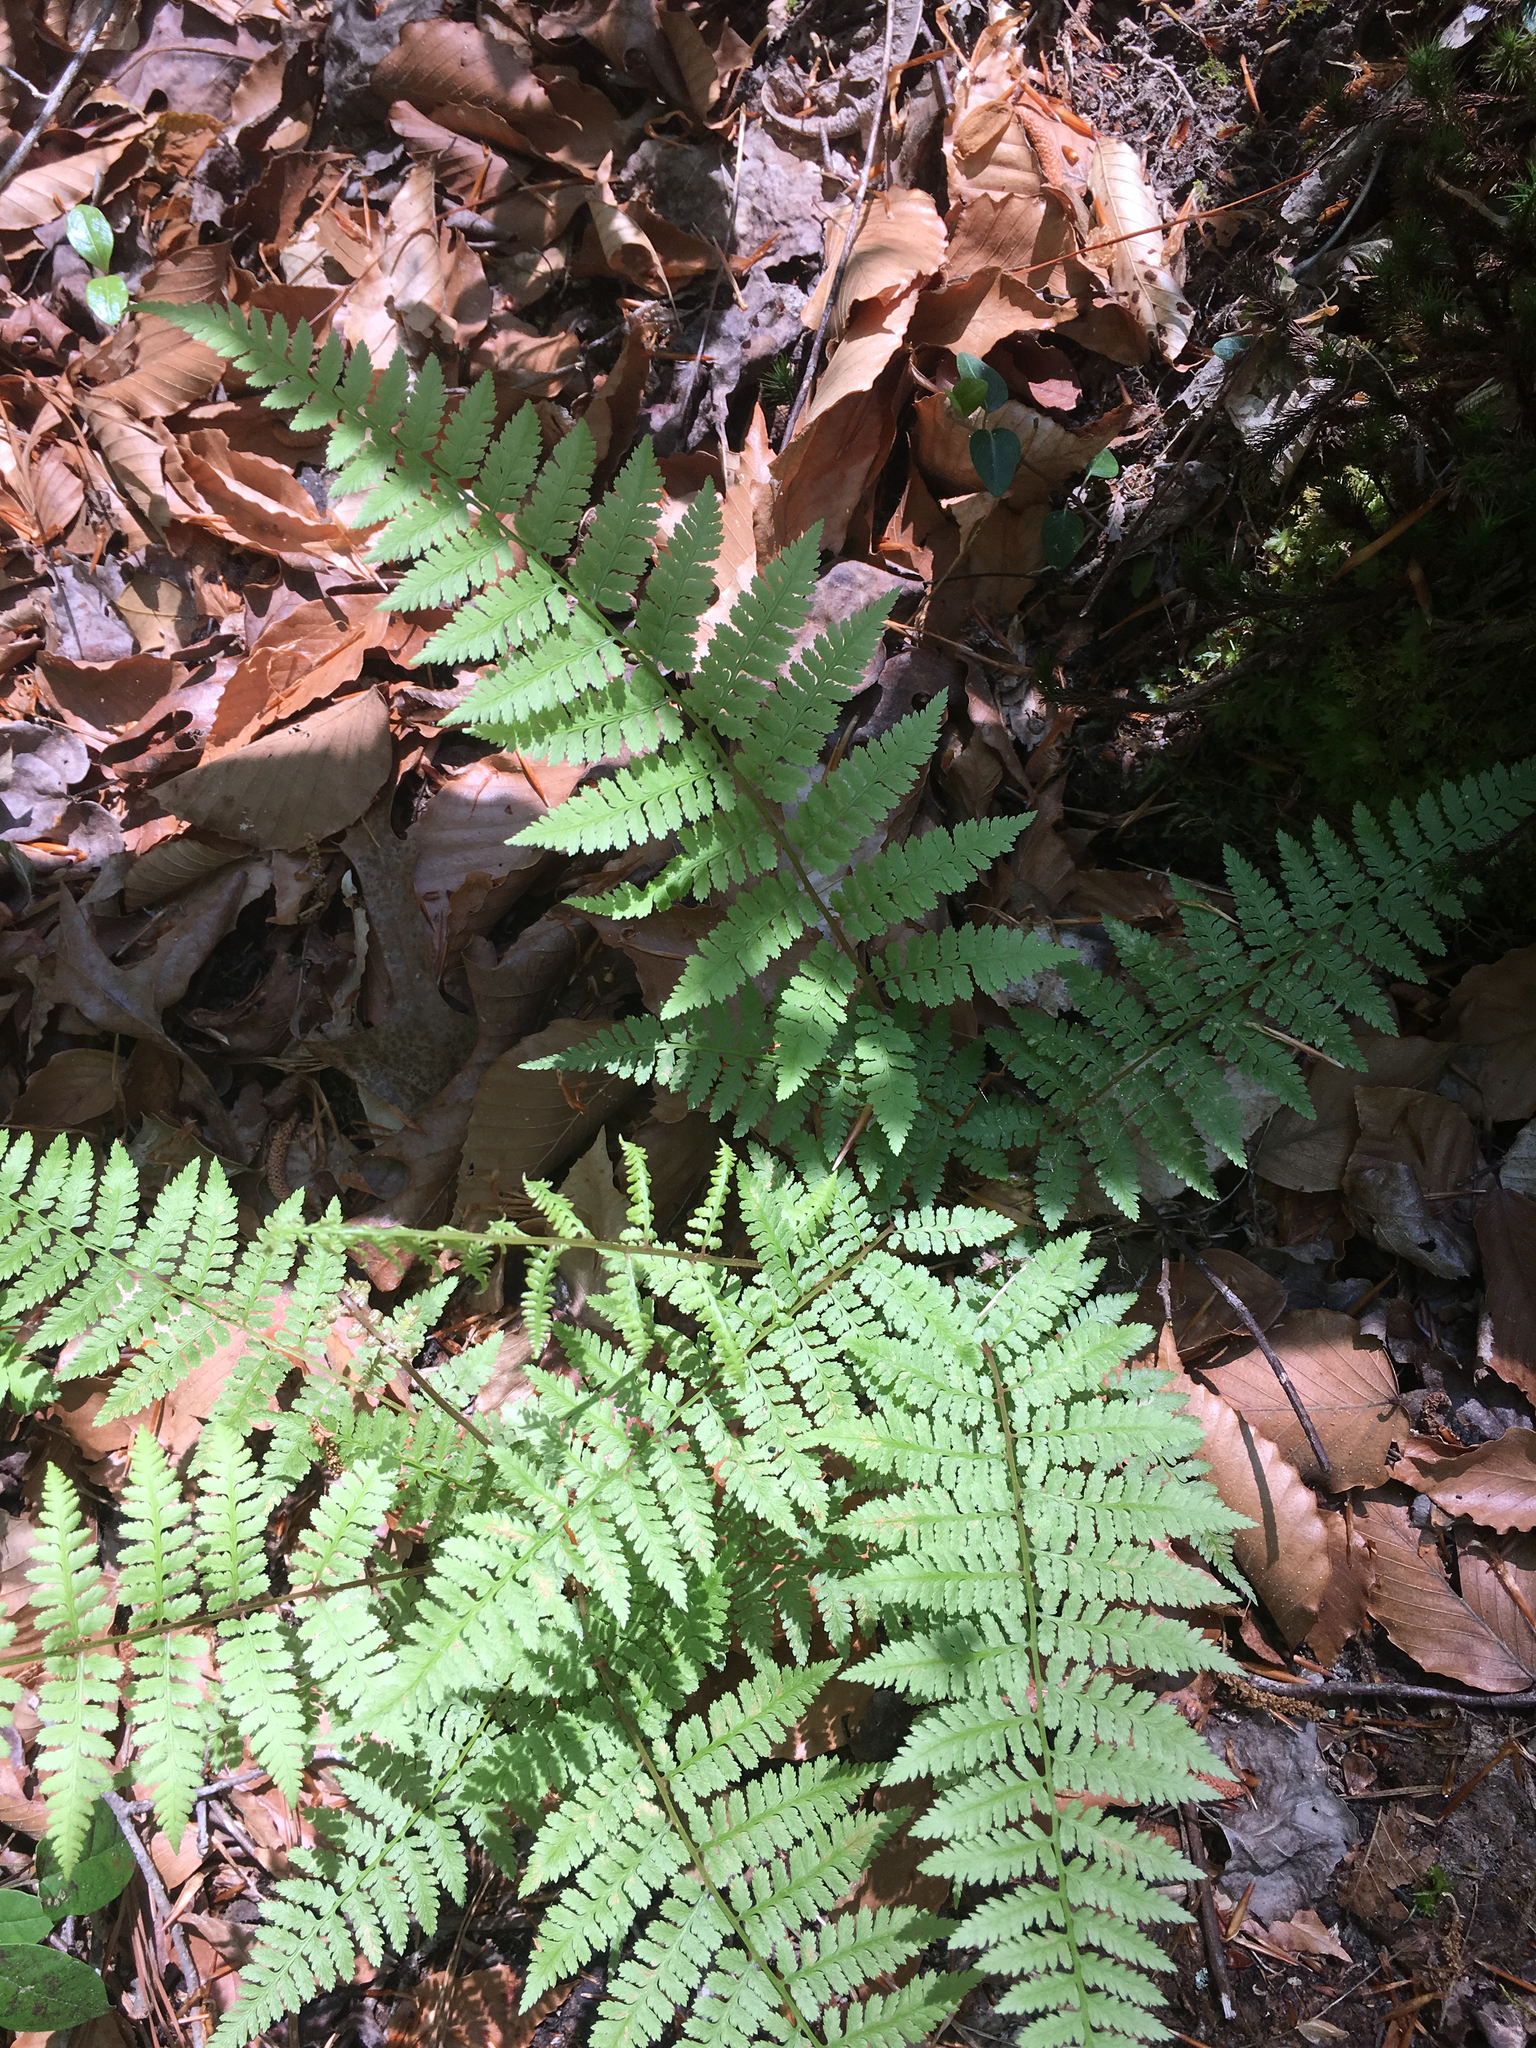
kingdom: Plantae
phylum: Tracheophyta
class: Polypodiopsida
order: Polypodiales
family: Athyriaceae
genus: Athyrium
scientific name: Athyrium asplenioides
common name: Southern lady fern
